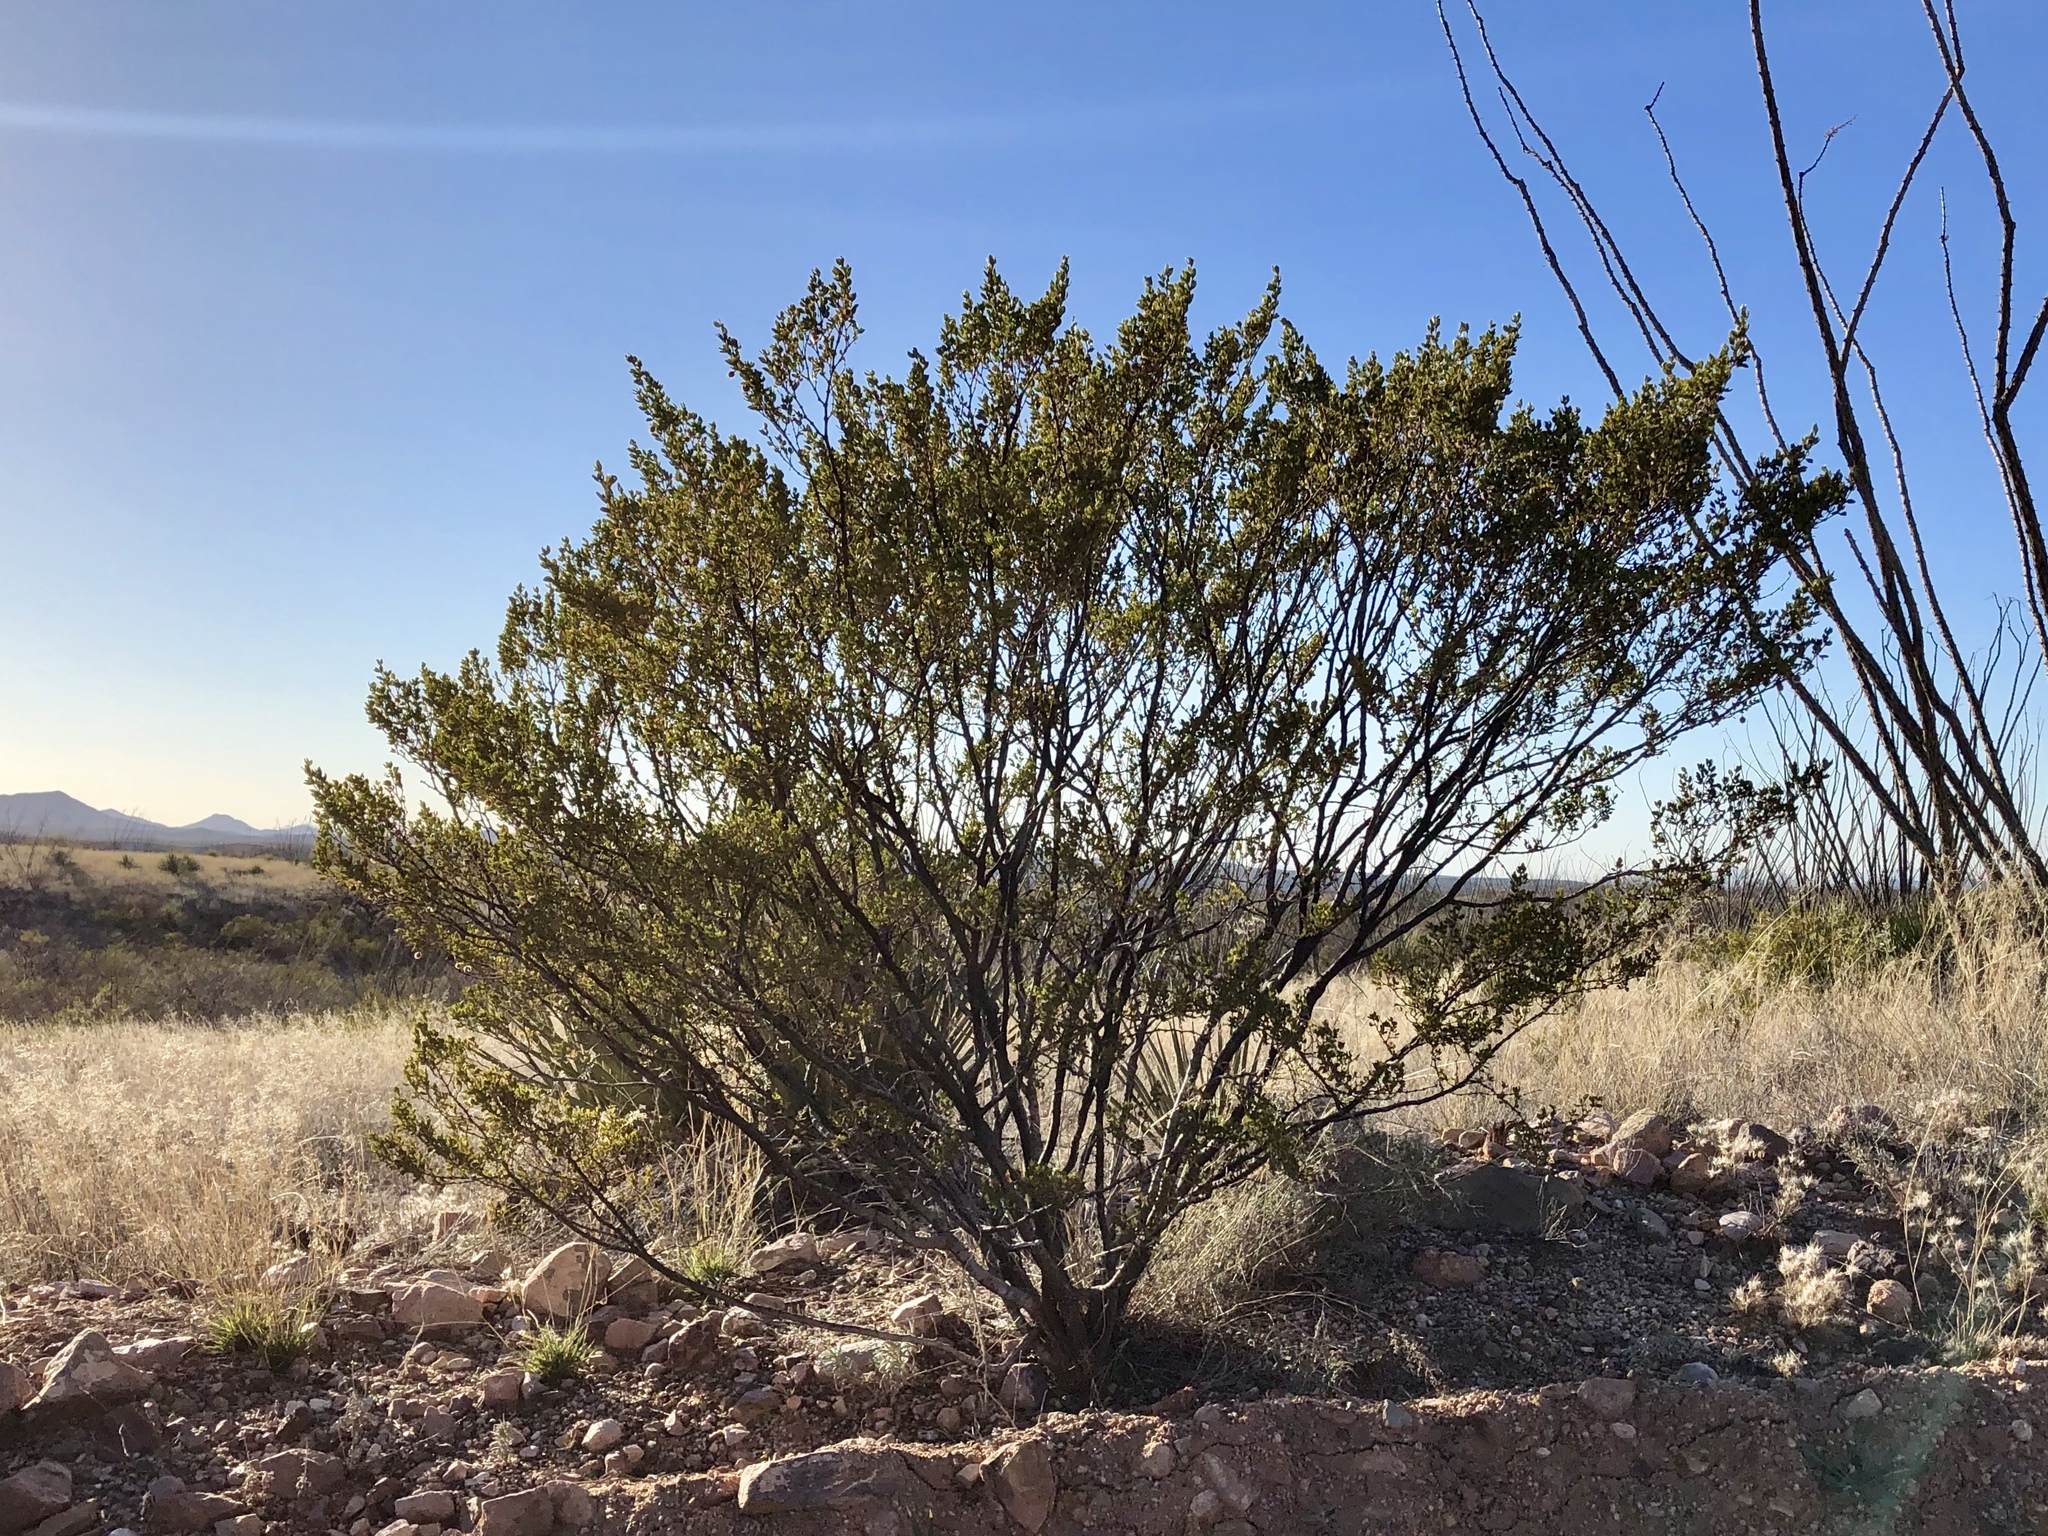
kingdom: Plantae
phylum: Tracheophyta
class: Magnoliopsida
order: Zygophyllales
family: Zygophyllaceae
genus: Larrea
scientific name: Larrea tridentata
